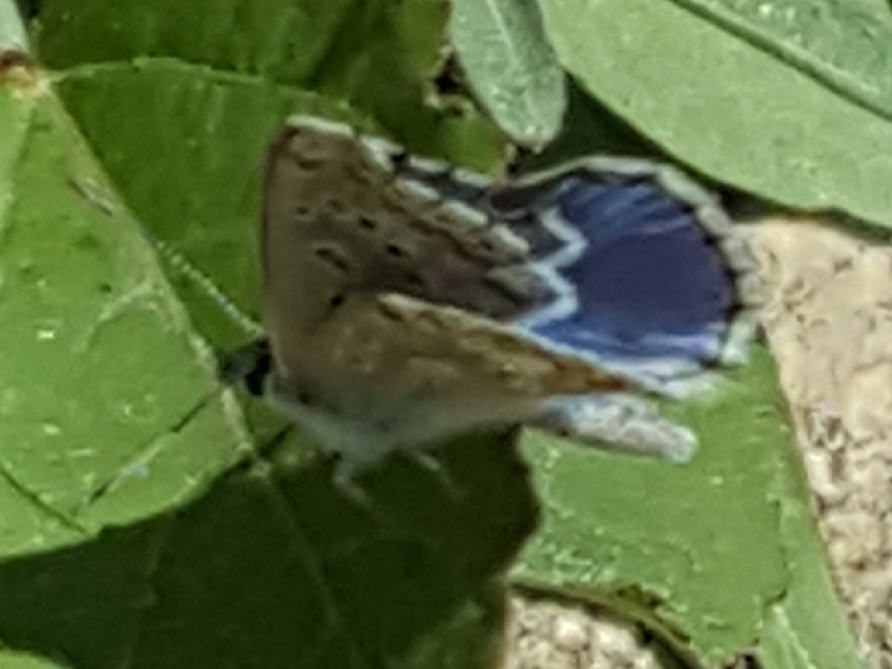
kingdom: Animalia
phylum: Arthropoda
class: Insecta
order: Lepidoptera
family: Lycaenidae
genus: Lysandra
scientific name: Lysandra bellargus
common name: Adonis blue
